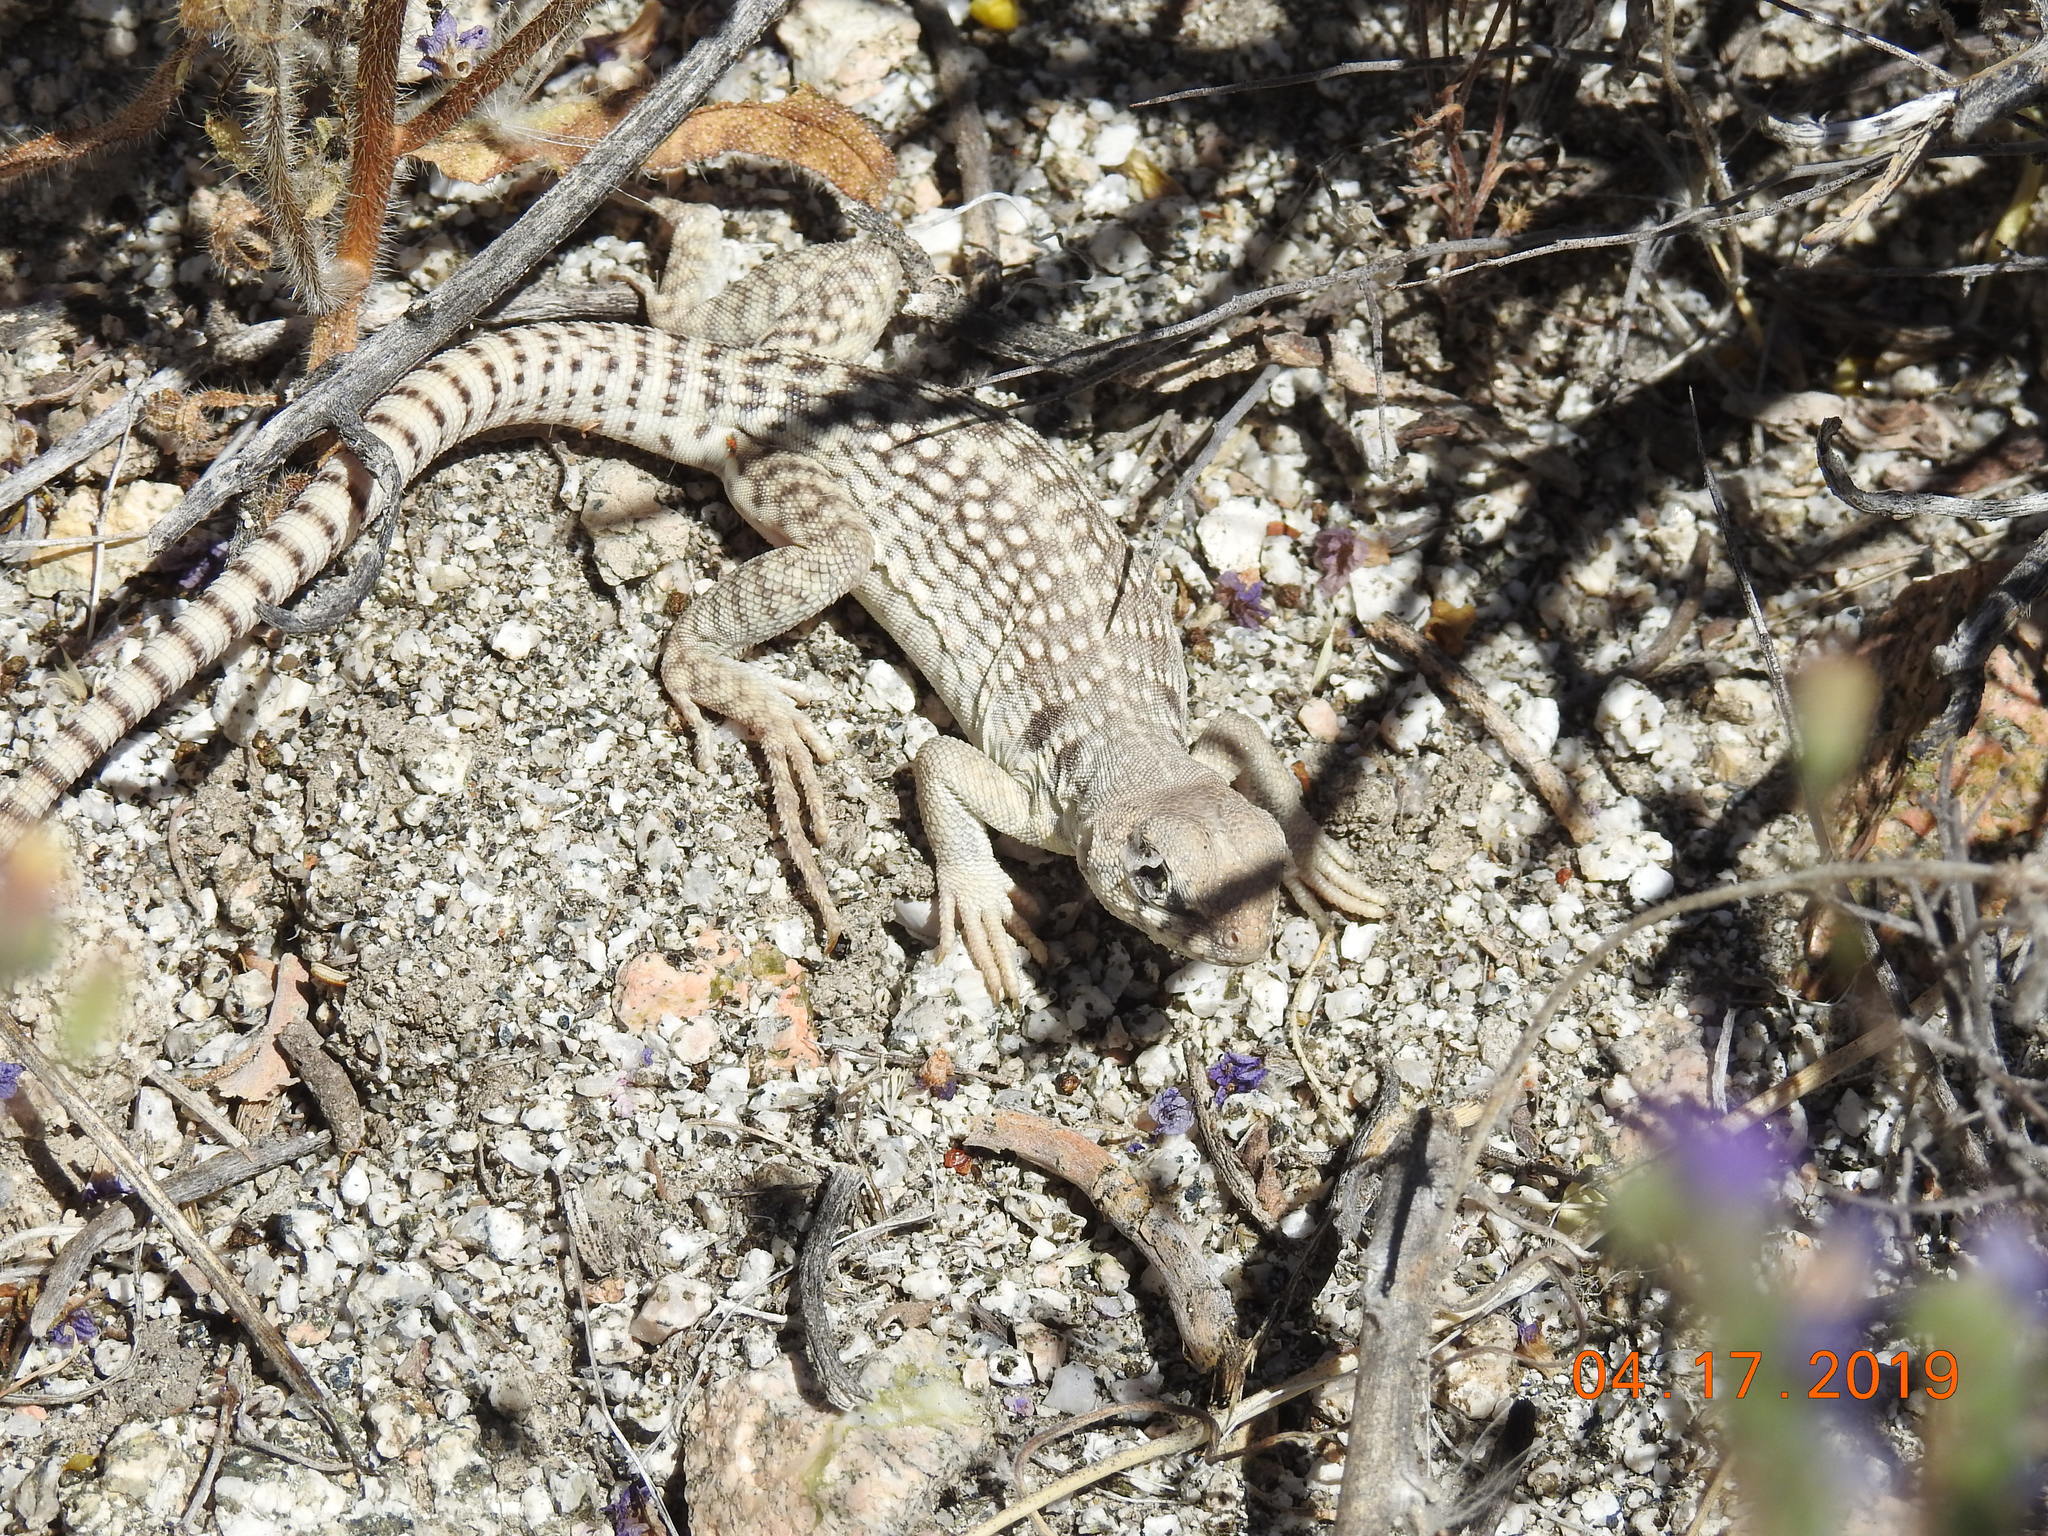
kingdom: Animalia
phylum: Chordata
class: Squamata
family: Iguanidae
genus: Dipsosaurus
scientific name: Dipsosaurus dorsalis
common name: Desert iguana
